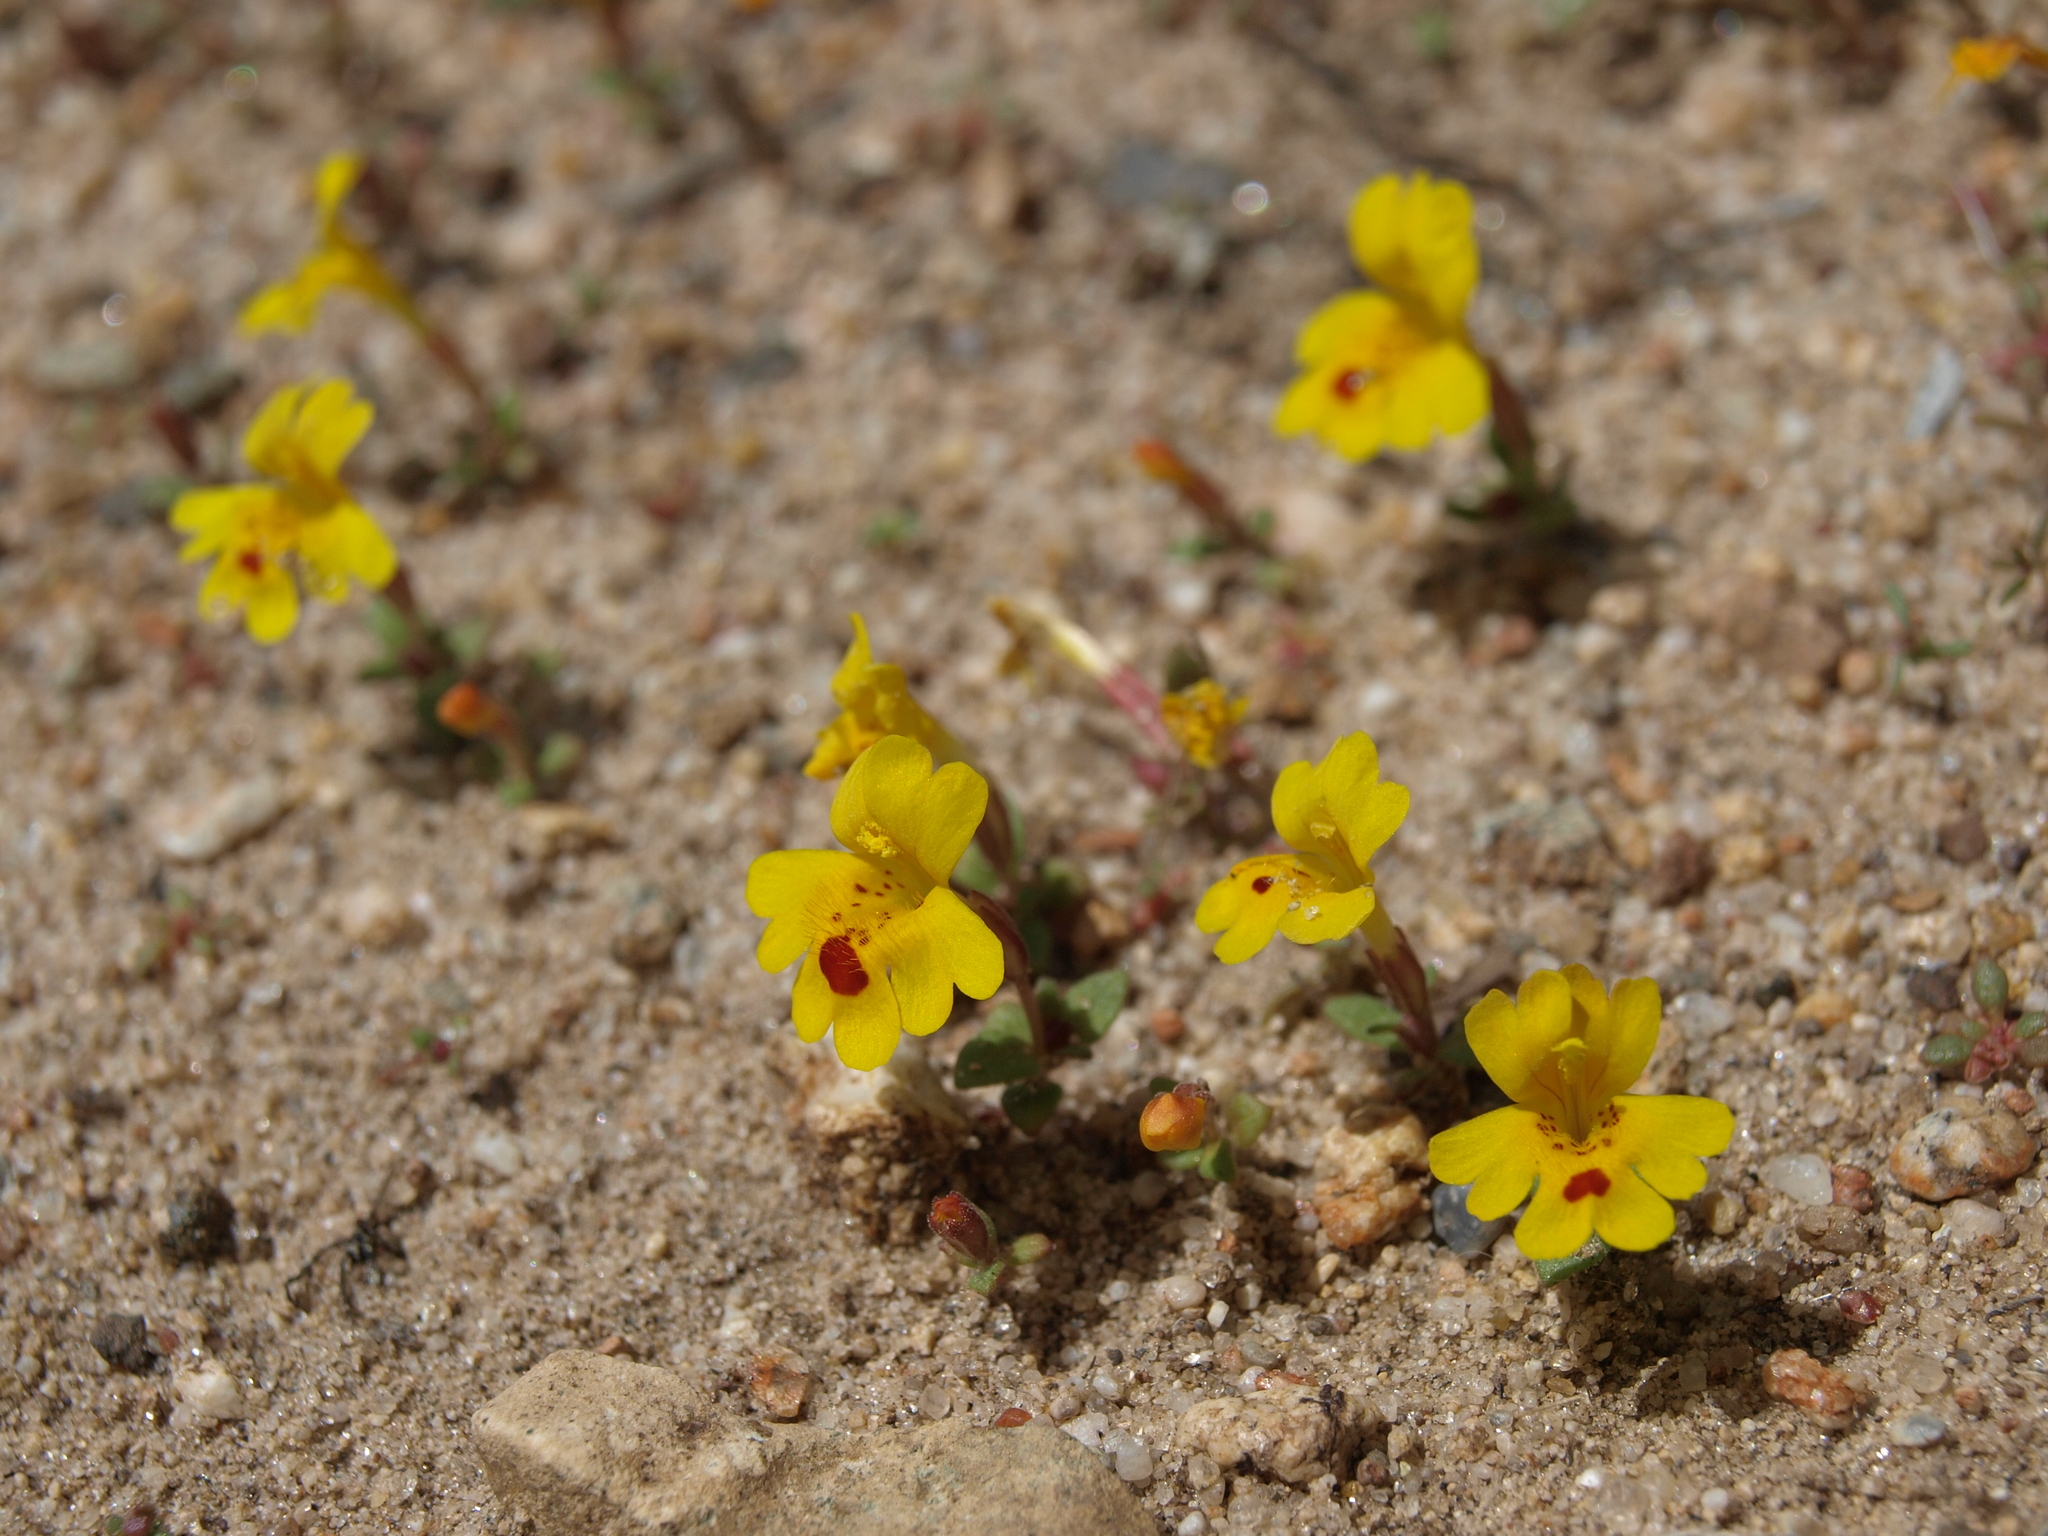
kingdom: Plantae
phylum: Tracheophyta
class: Magnoliopsida
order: Lamiales
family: Phrymaceae
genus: Erythranthe
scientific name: Erythranthe carsonensis
